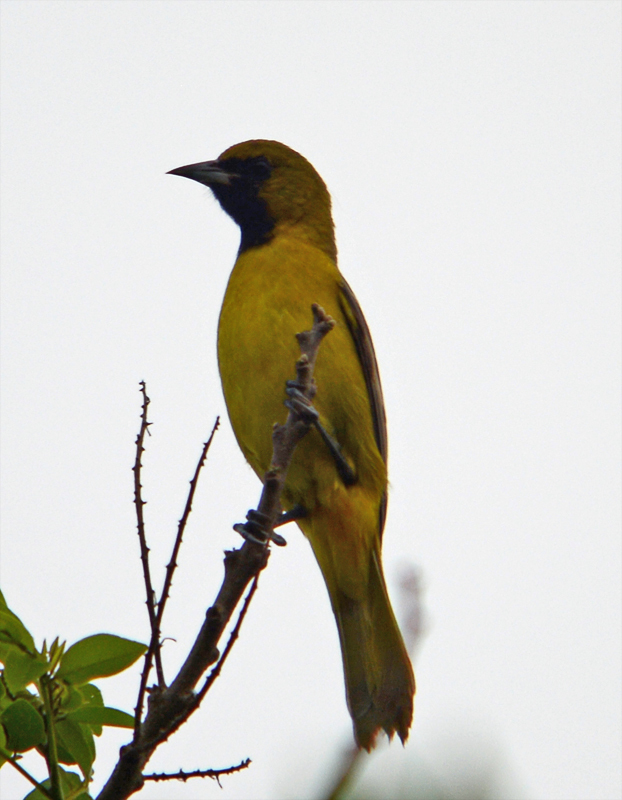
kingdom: Animalia
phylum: Chordata
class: Aves
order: Passeriformes
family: Icteridae
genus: Icterus
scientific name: Icterus spurius
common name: Orchard oriole
